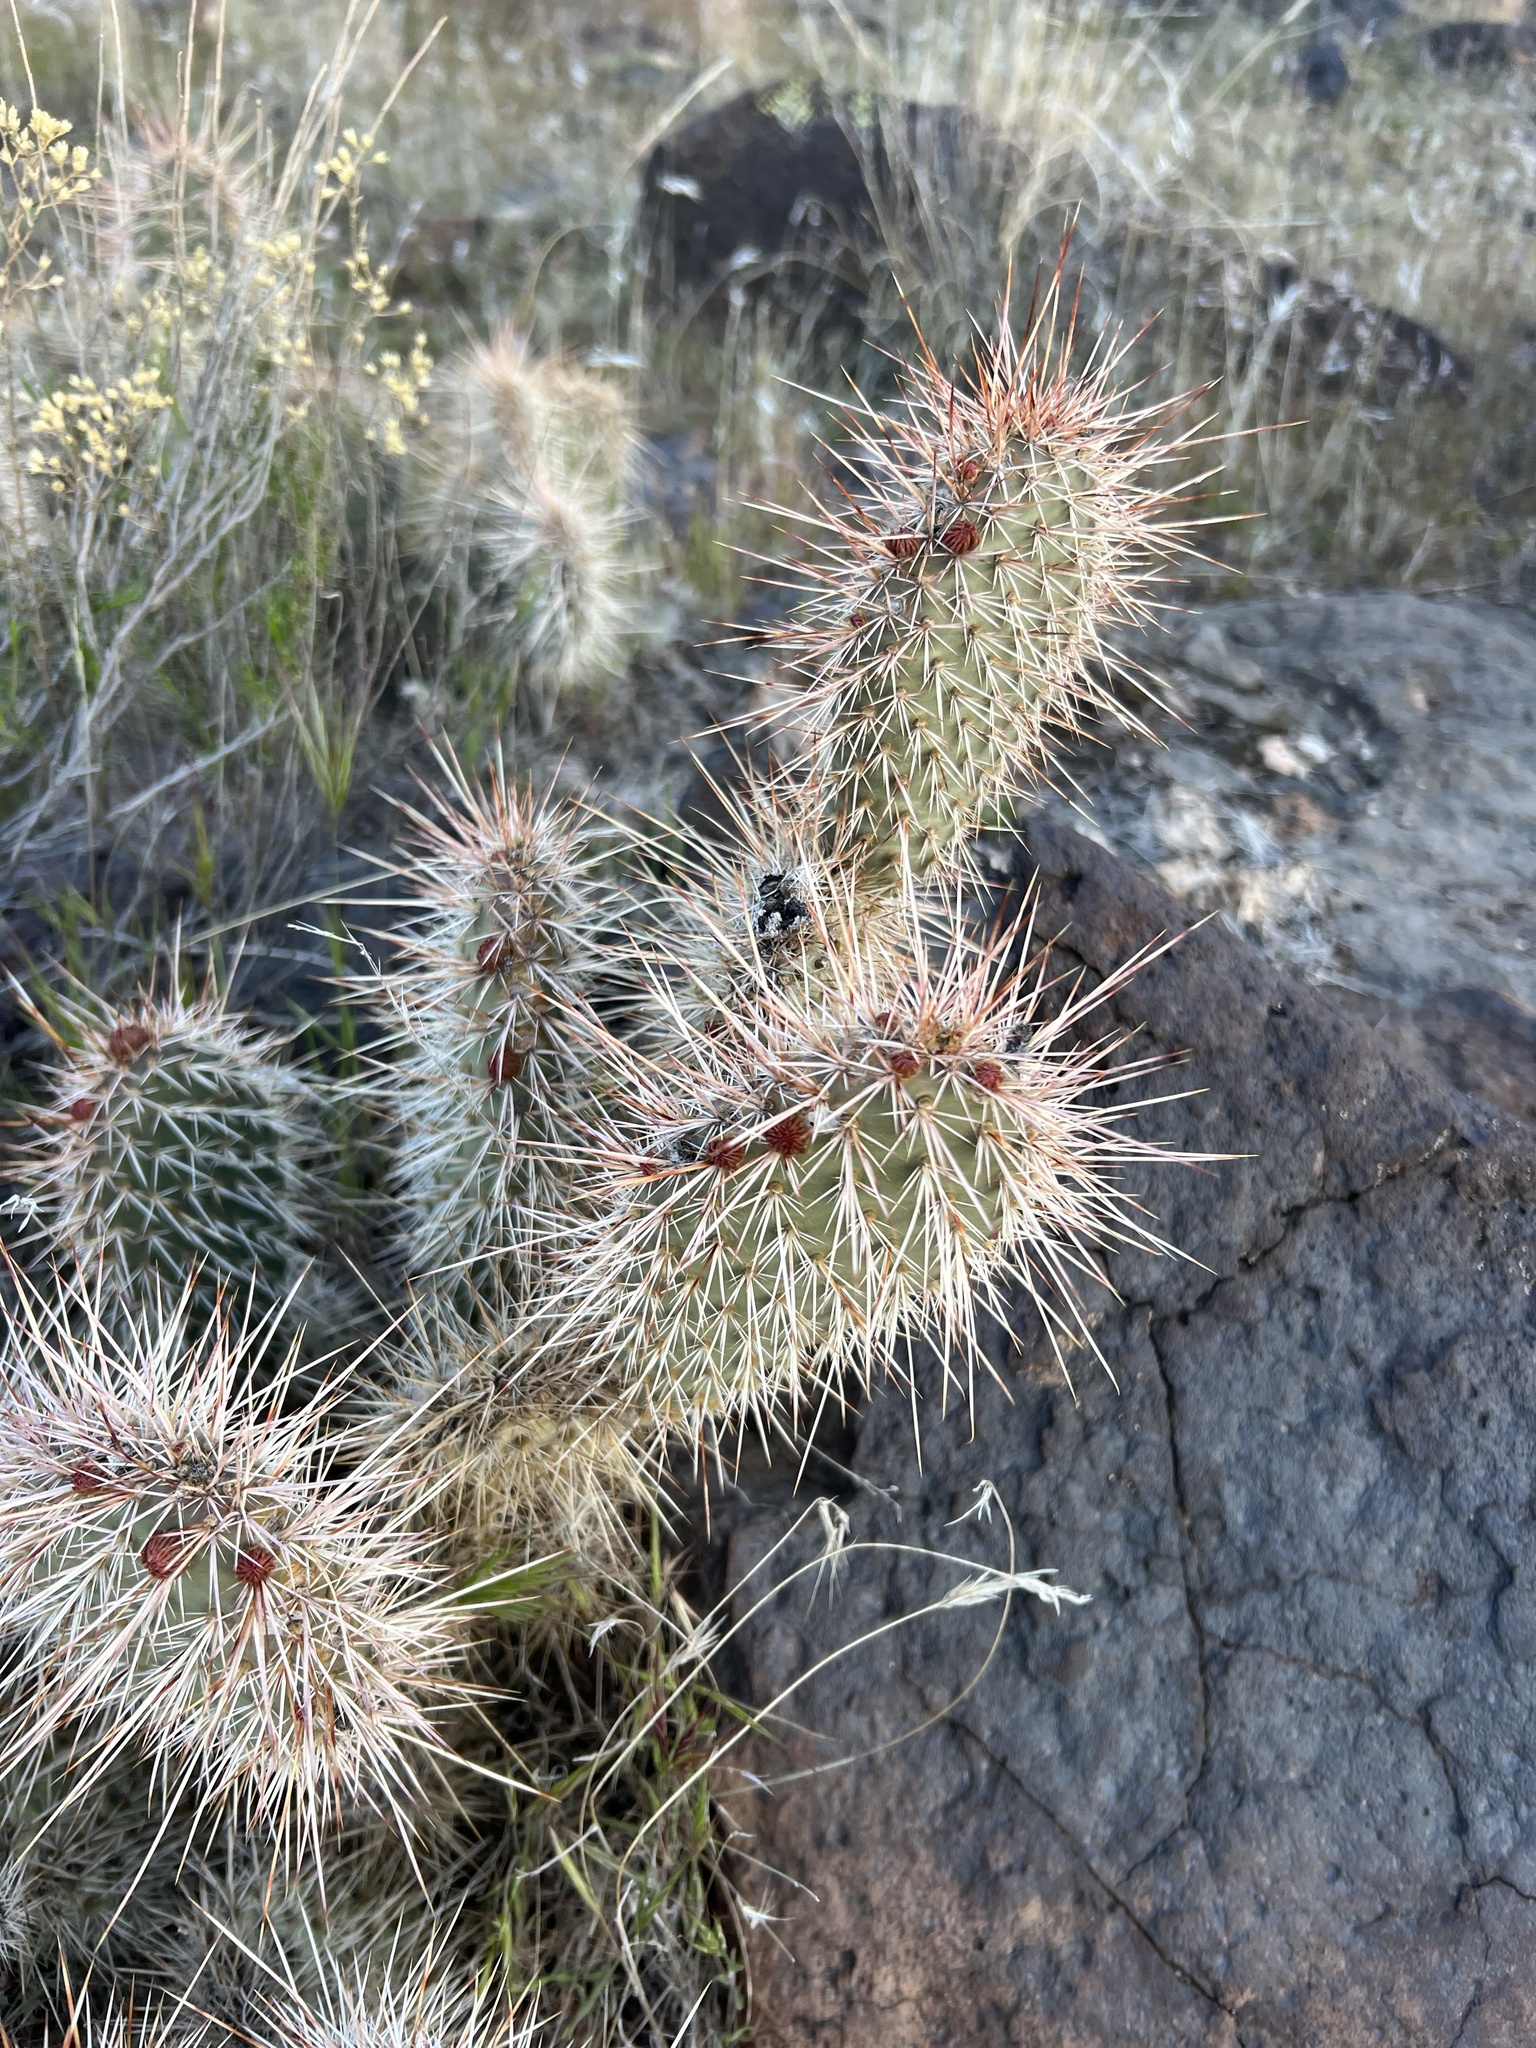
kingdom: Plantae
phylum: Tracheophyta
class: Magnoliopsida
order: Caryophyllales
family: Cactaceae
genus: Opuntia
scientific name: Opuntia polyacantha
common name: Plains prickly-pear
